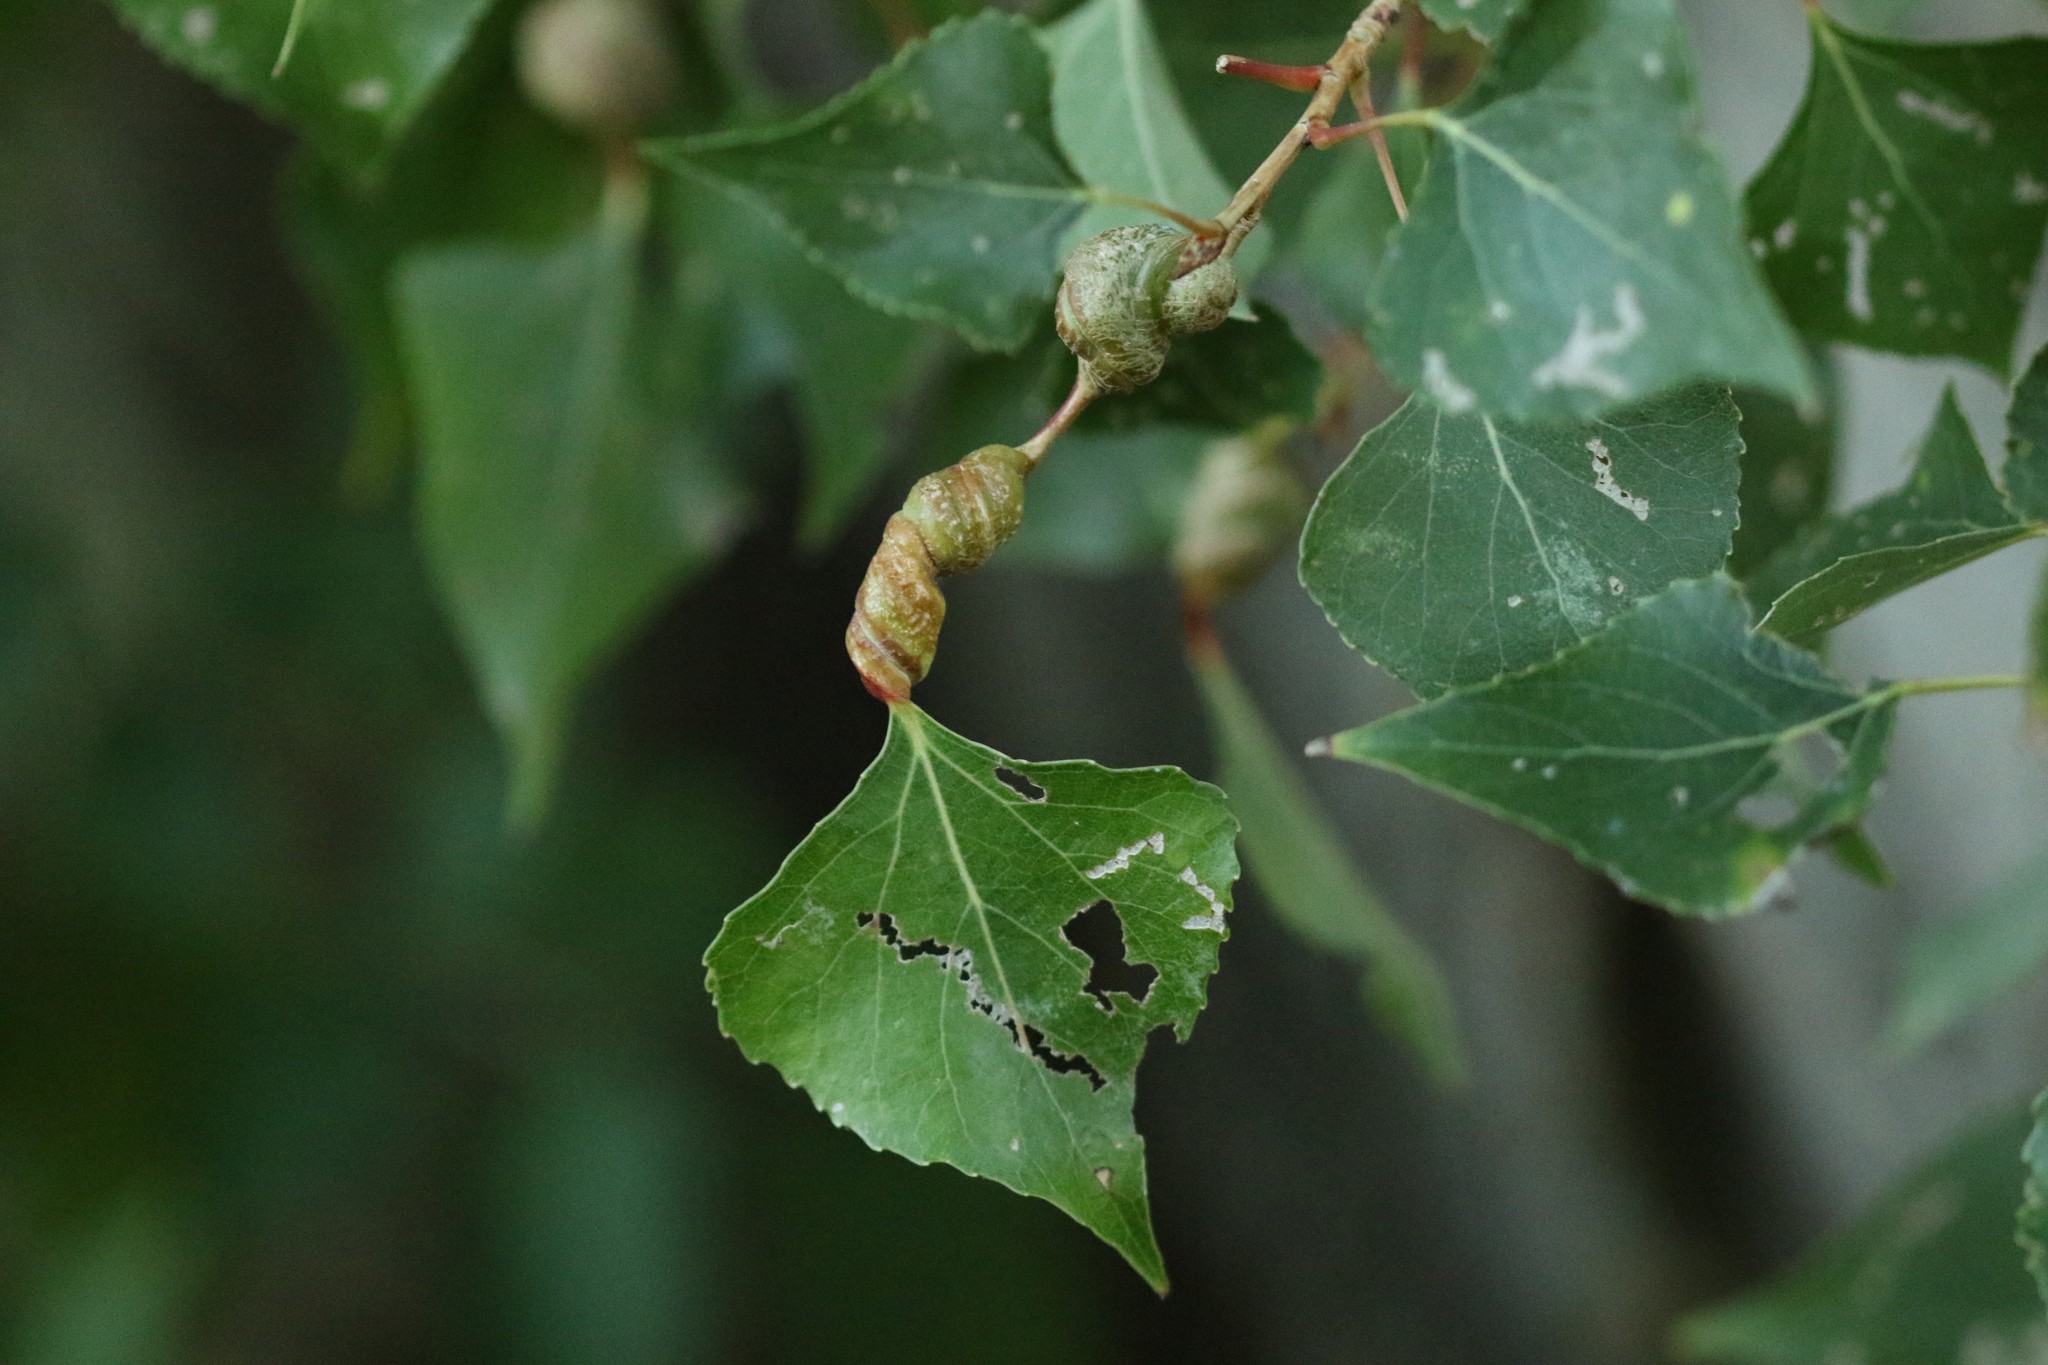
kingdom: Animalia
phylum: Arthropoda
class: Insecta
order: Hemiptera
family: Aphididae
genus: Pemphigus
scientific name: Pemphigus spyrothecae
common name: Aphid
